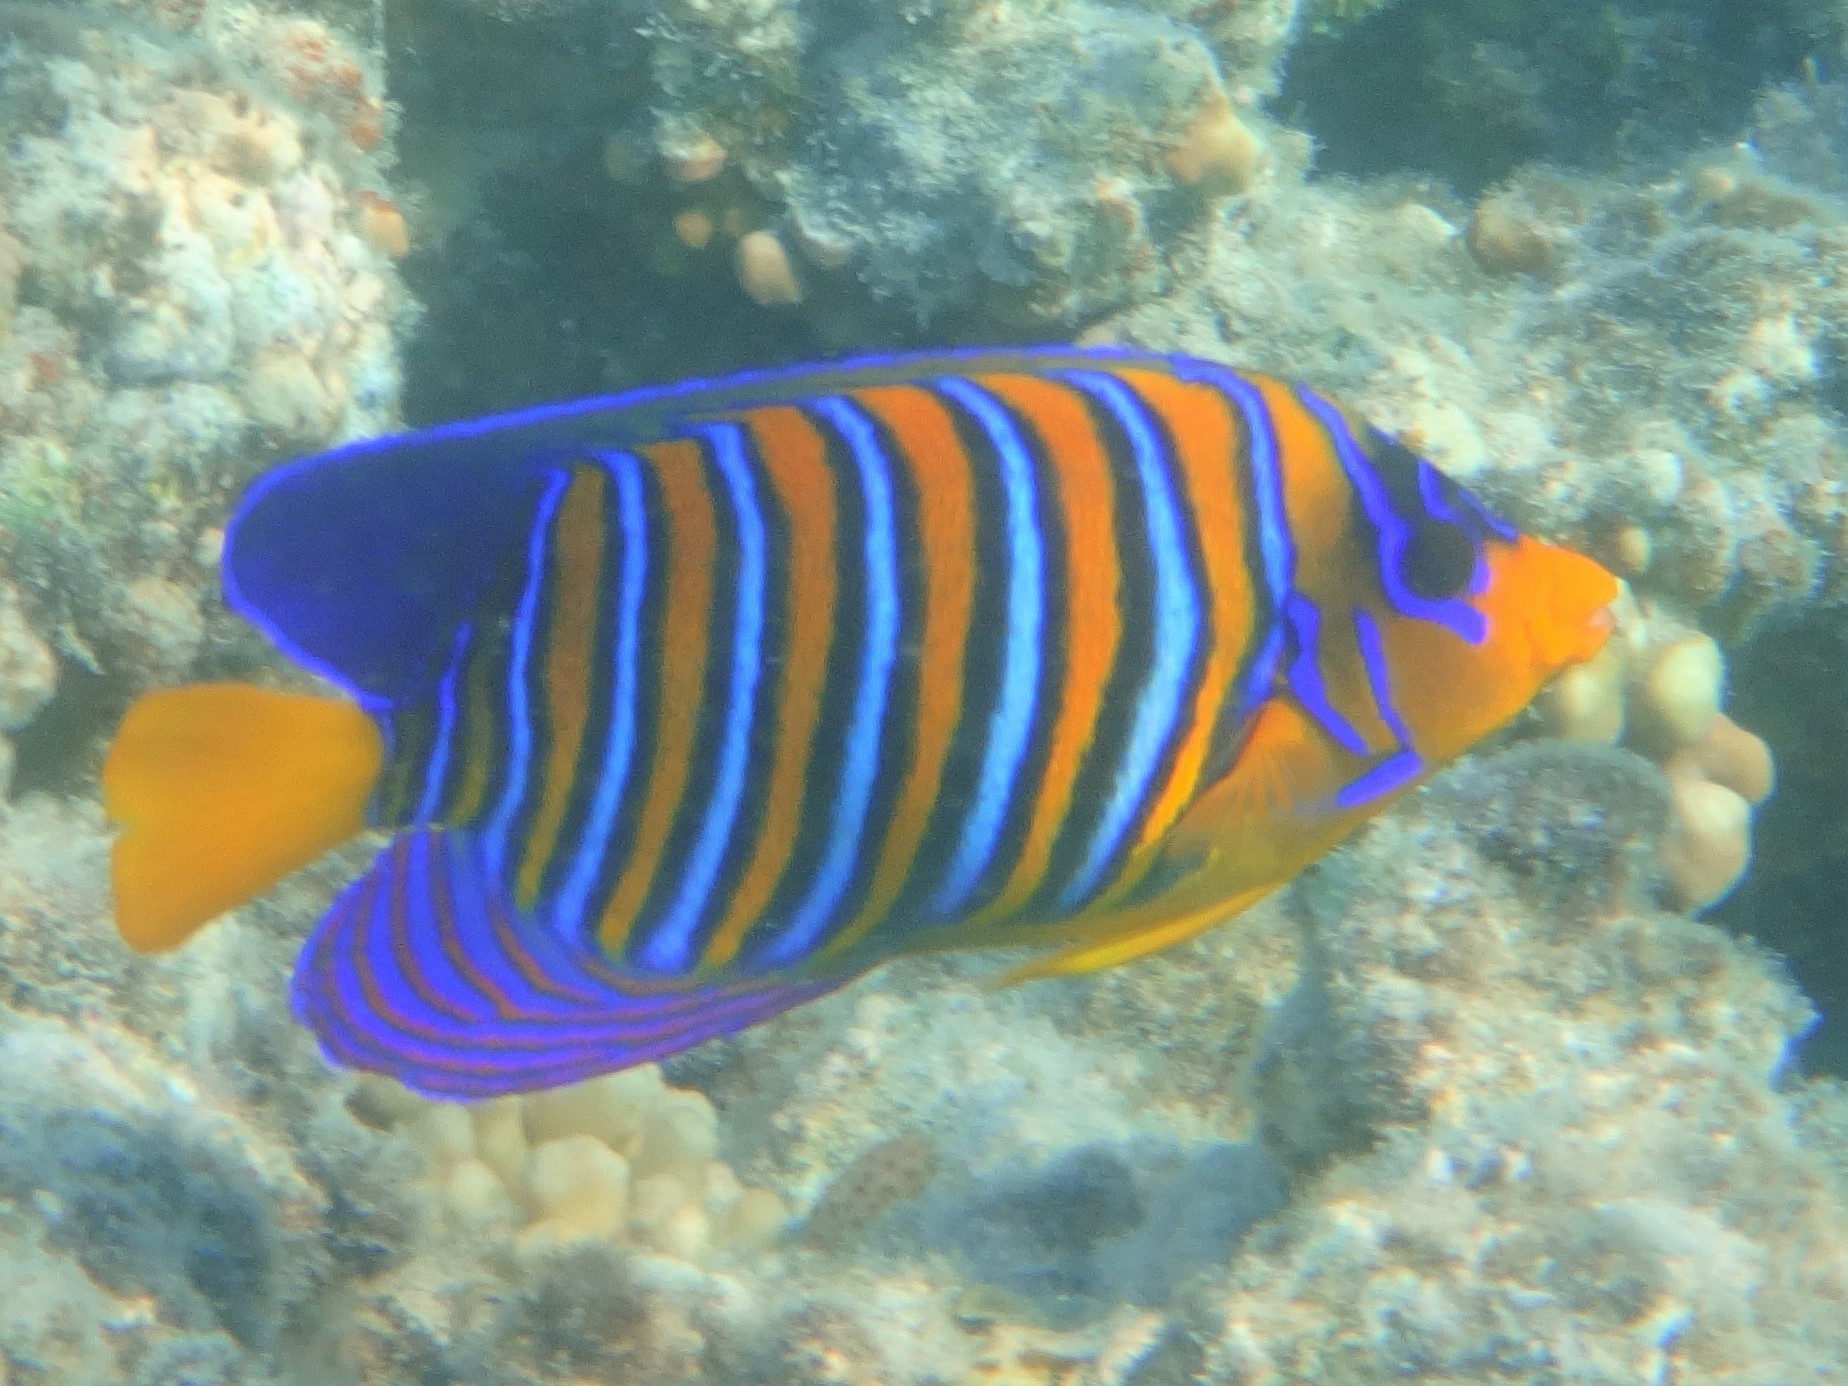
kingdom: Animalia
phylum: Chordata
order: Perciformes
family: Pomacanthidae
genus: Pygoplites
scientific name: Pygoplites diacanthus
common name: Regal angelfish
